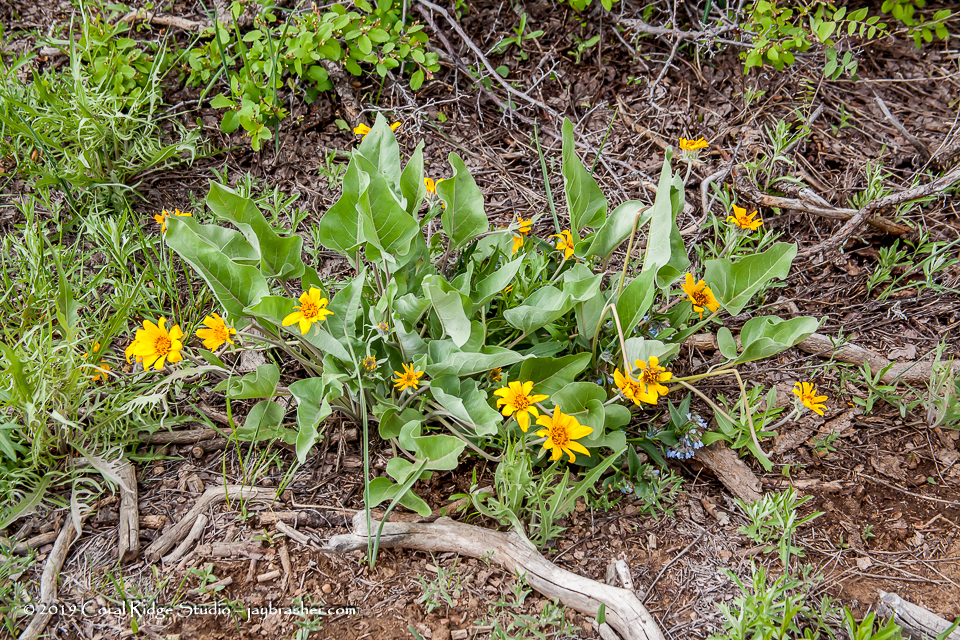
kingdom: Plantae
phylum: Tracheophyta
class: Magnoliopsida
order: Asterales
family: Asteraceae
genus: Wyethia
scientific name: Wyethia sagittata
